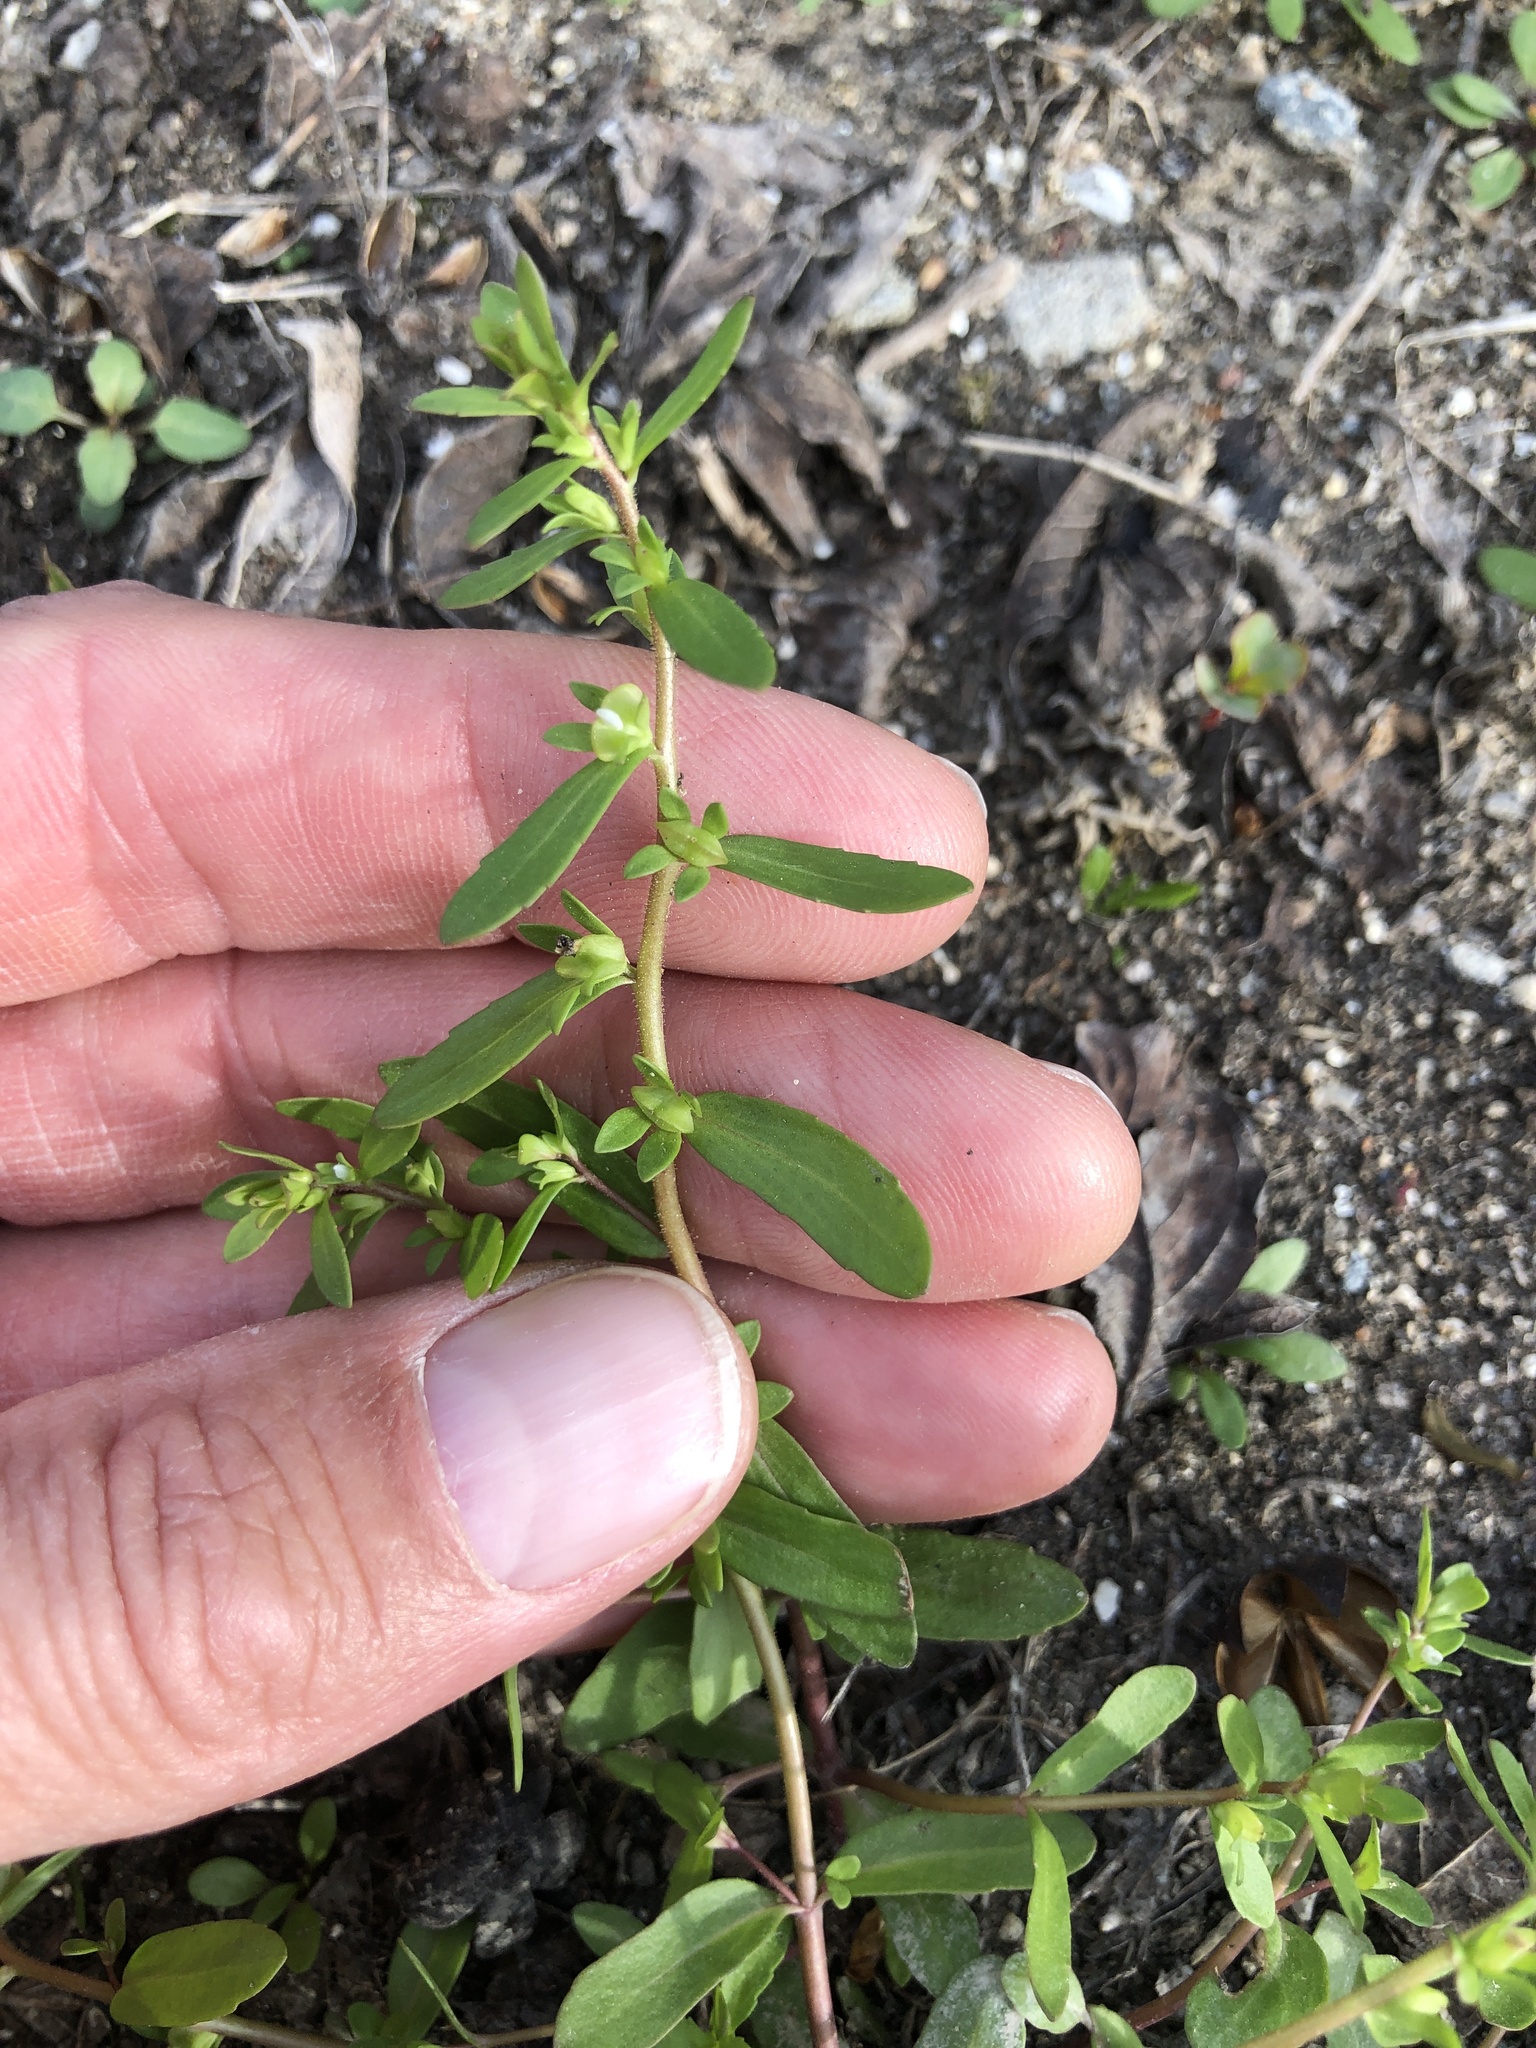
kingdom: Plantae
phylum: Tracheophyta
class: Magnoliopsida
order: Lamiales
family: Plantaginaceae
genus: Veronica
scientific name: Veronica peregrina
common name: Neckweed
